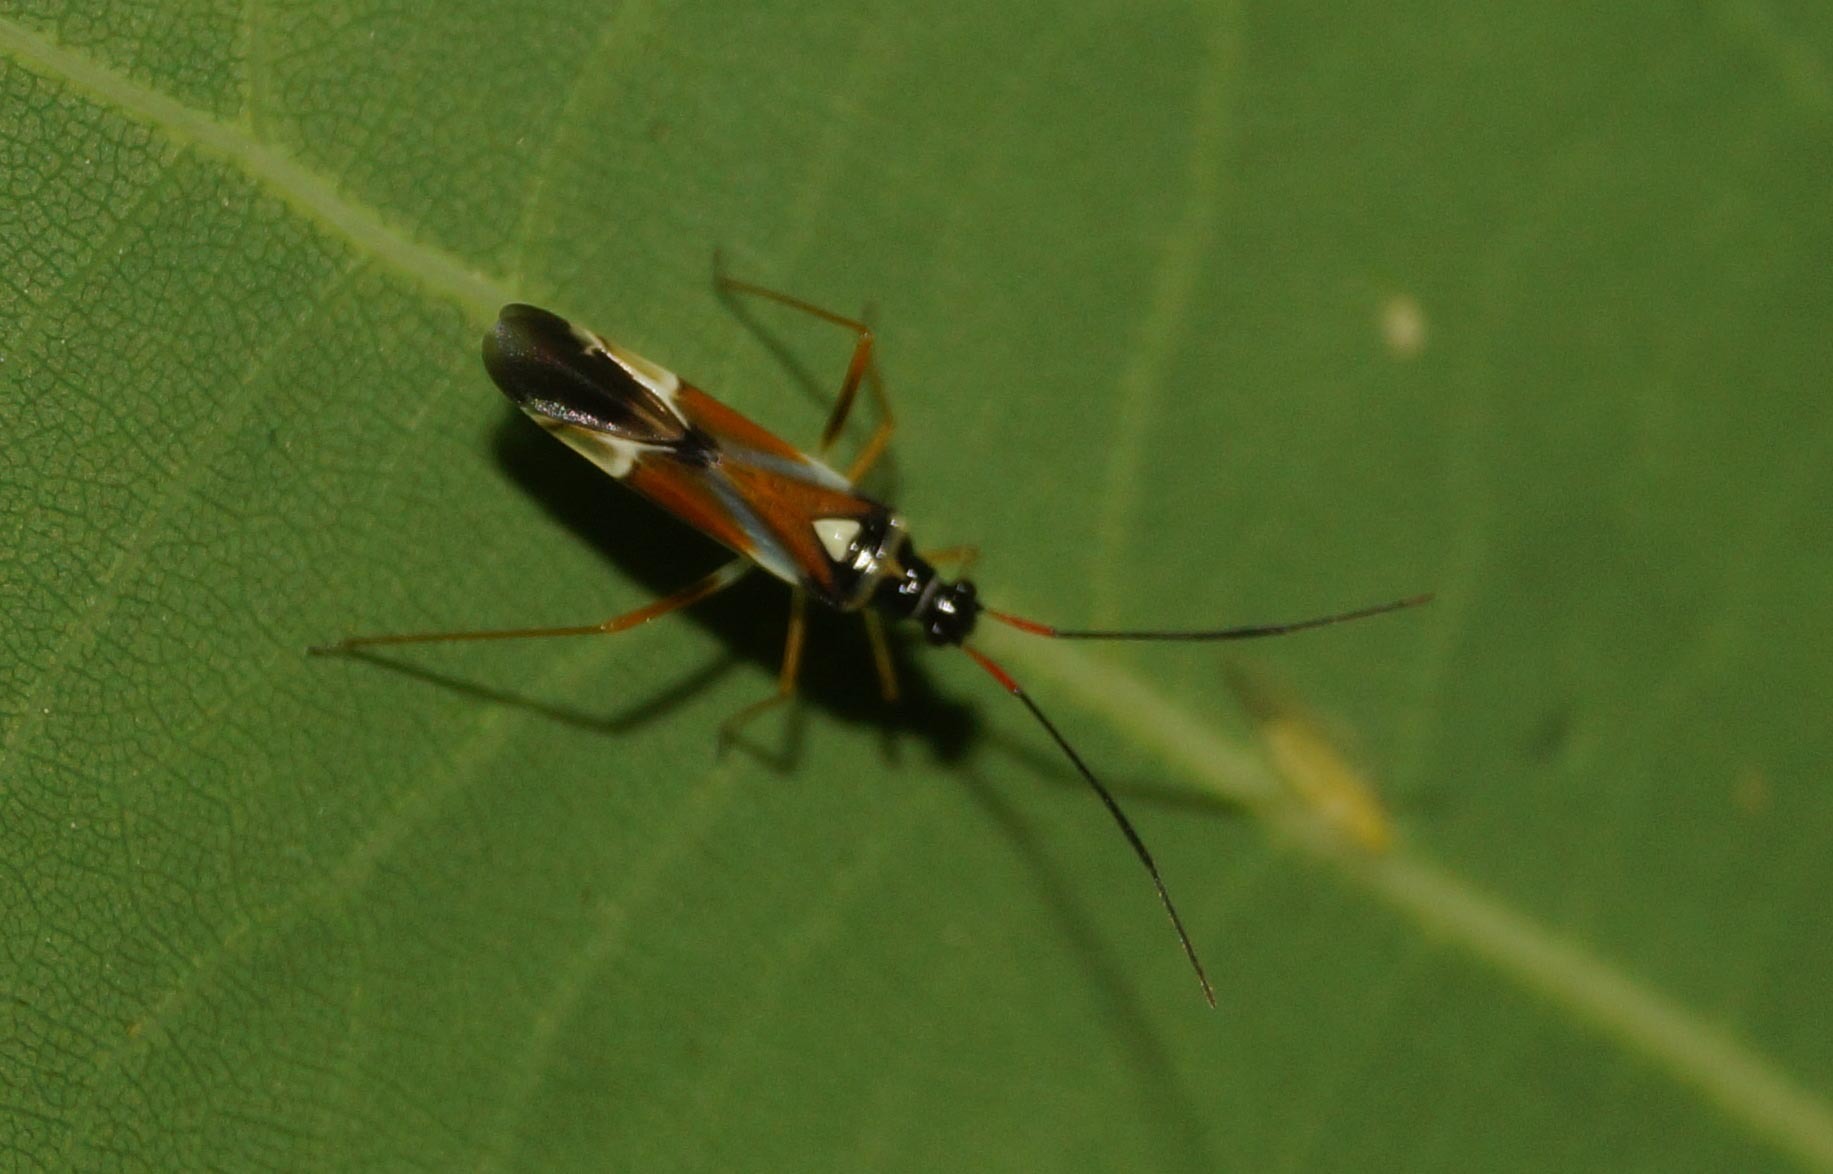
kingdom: Animalia
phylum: Arthropoda
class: Insecta
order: Hemiptera
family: Miridae
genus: Cyllecoris
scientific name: Cyllecoris histrionius
